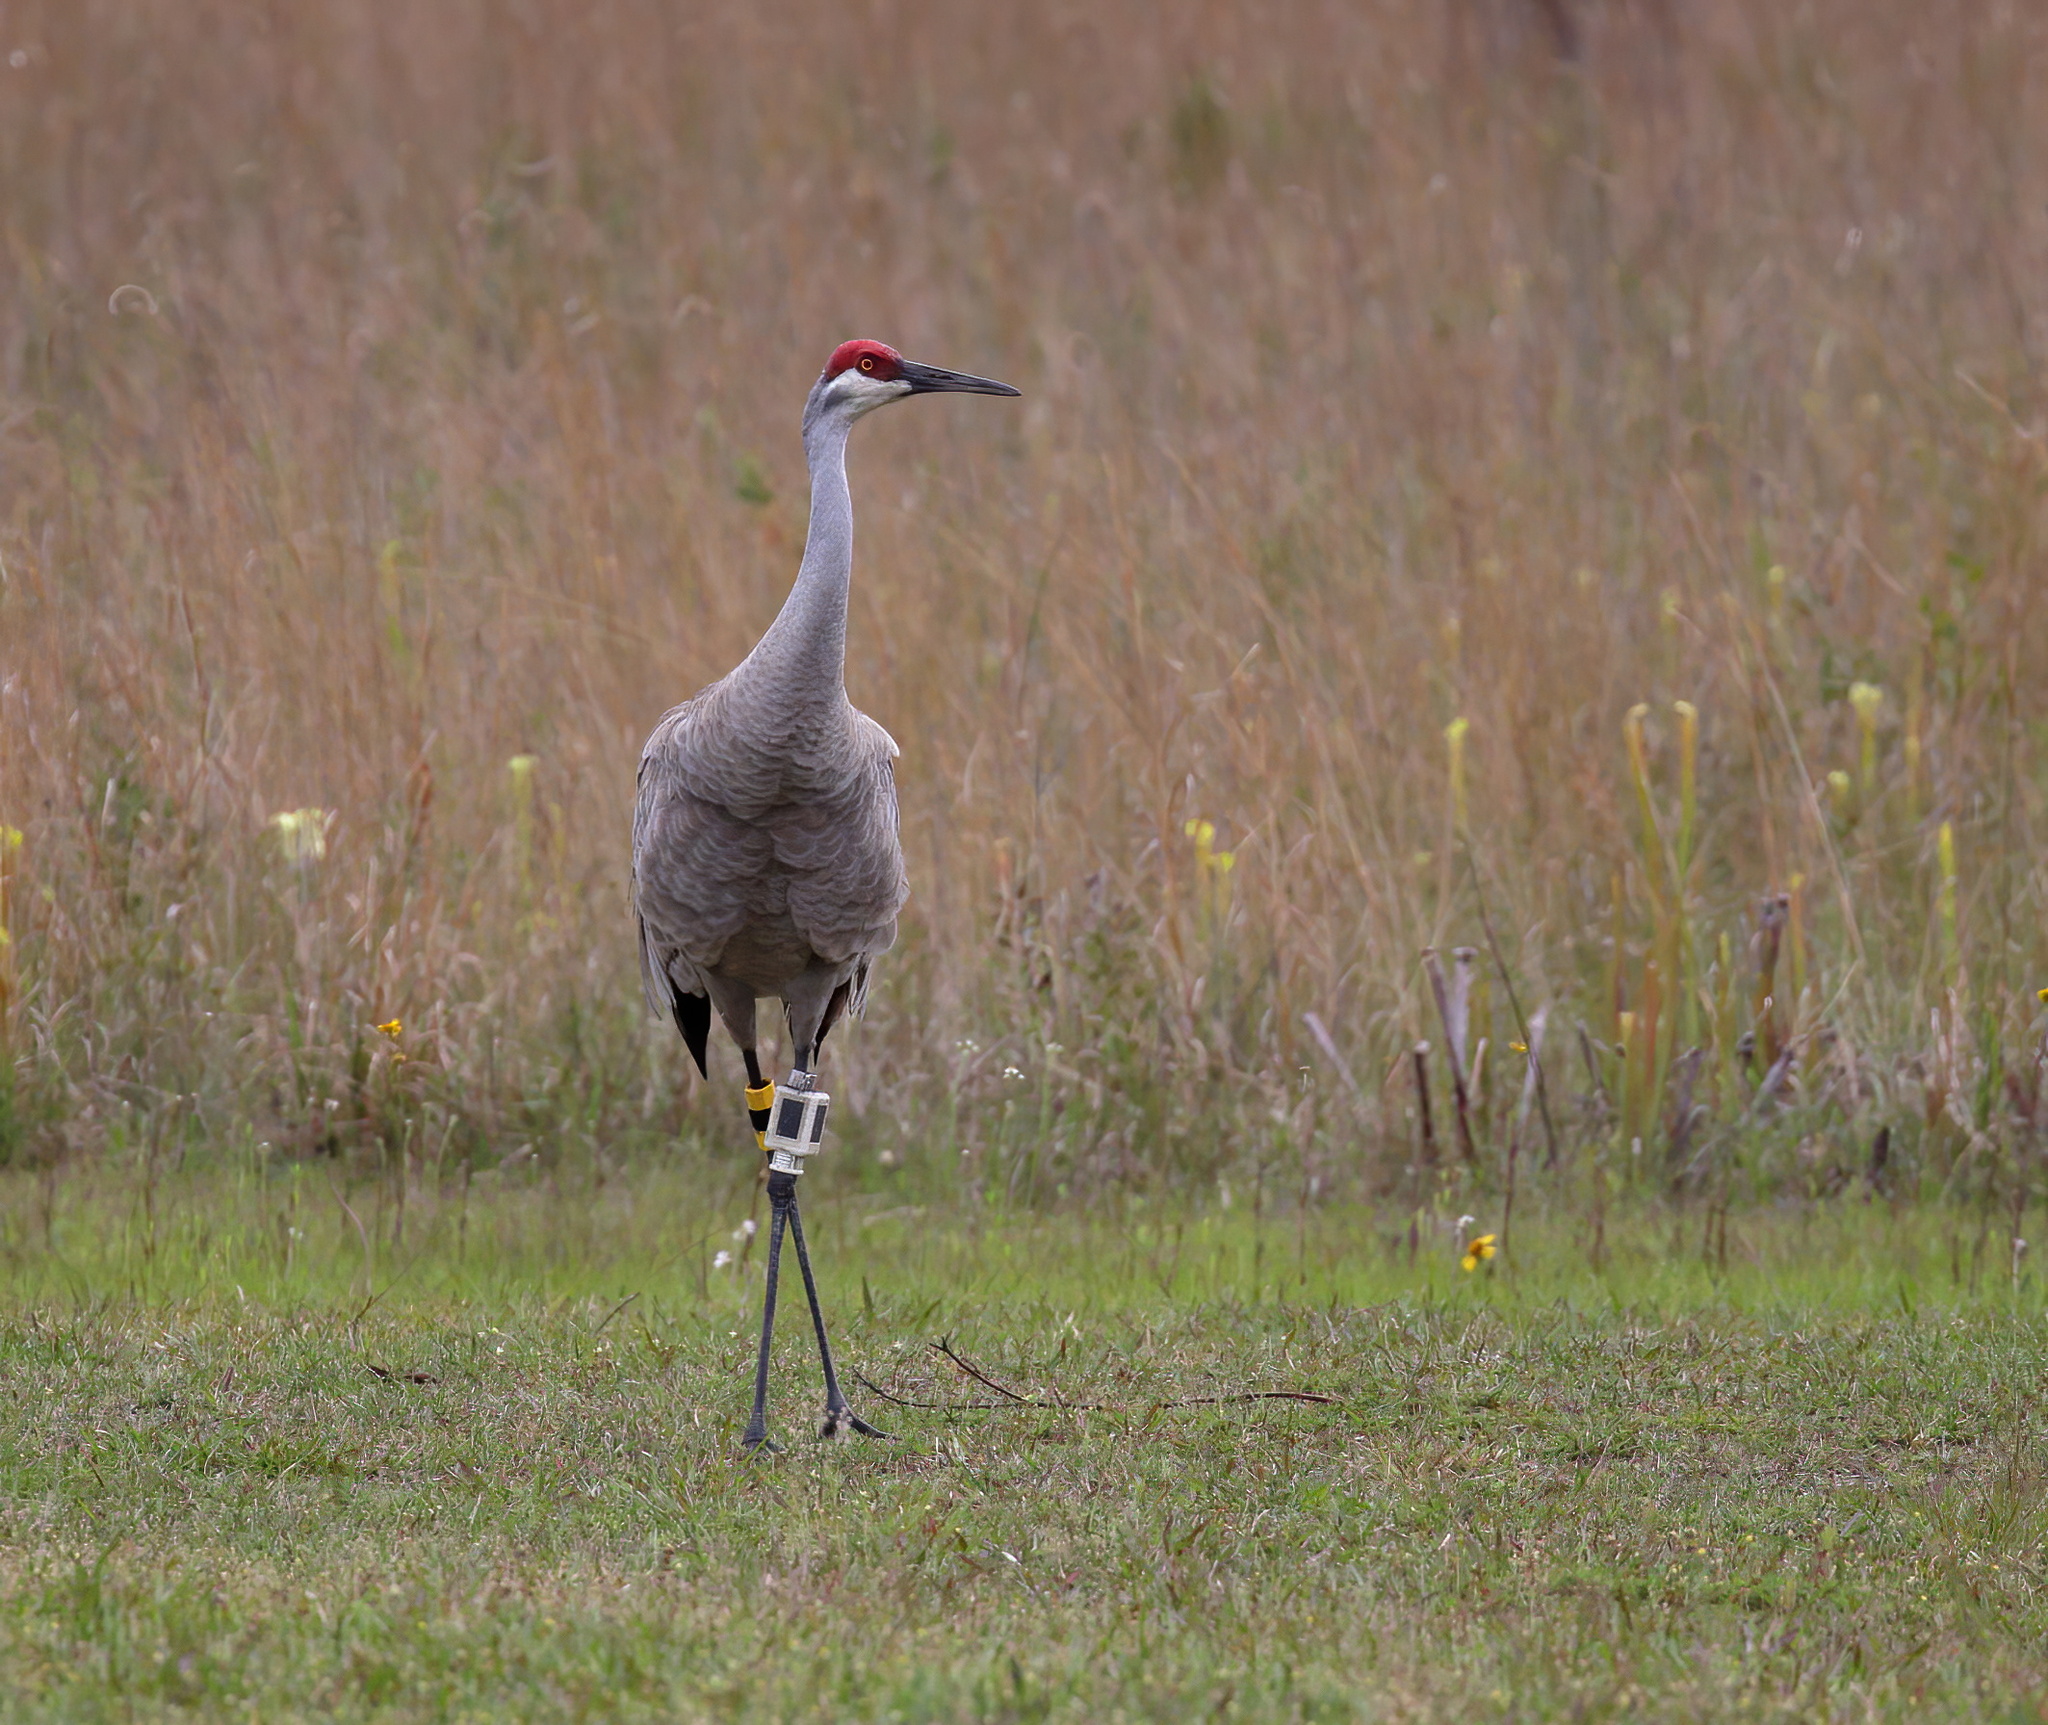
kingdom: Animalia
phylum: Chordata
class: Aves
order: Gruiformes
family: Gruidae
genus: Grus
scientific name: Grus canadensis
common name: Sandhill crane
